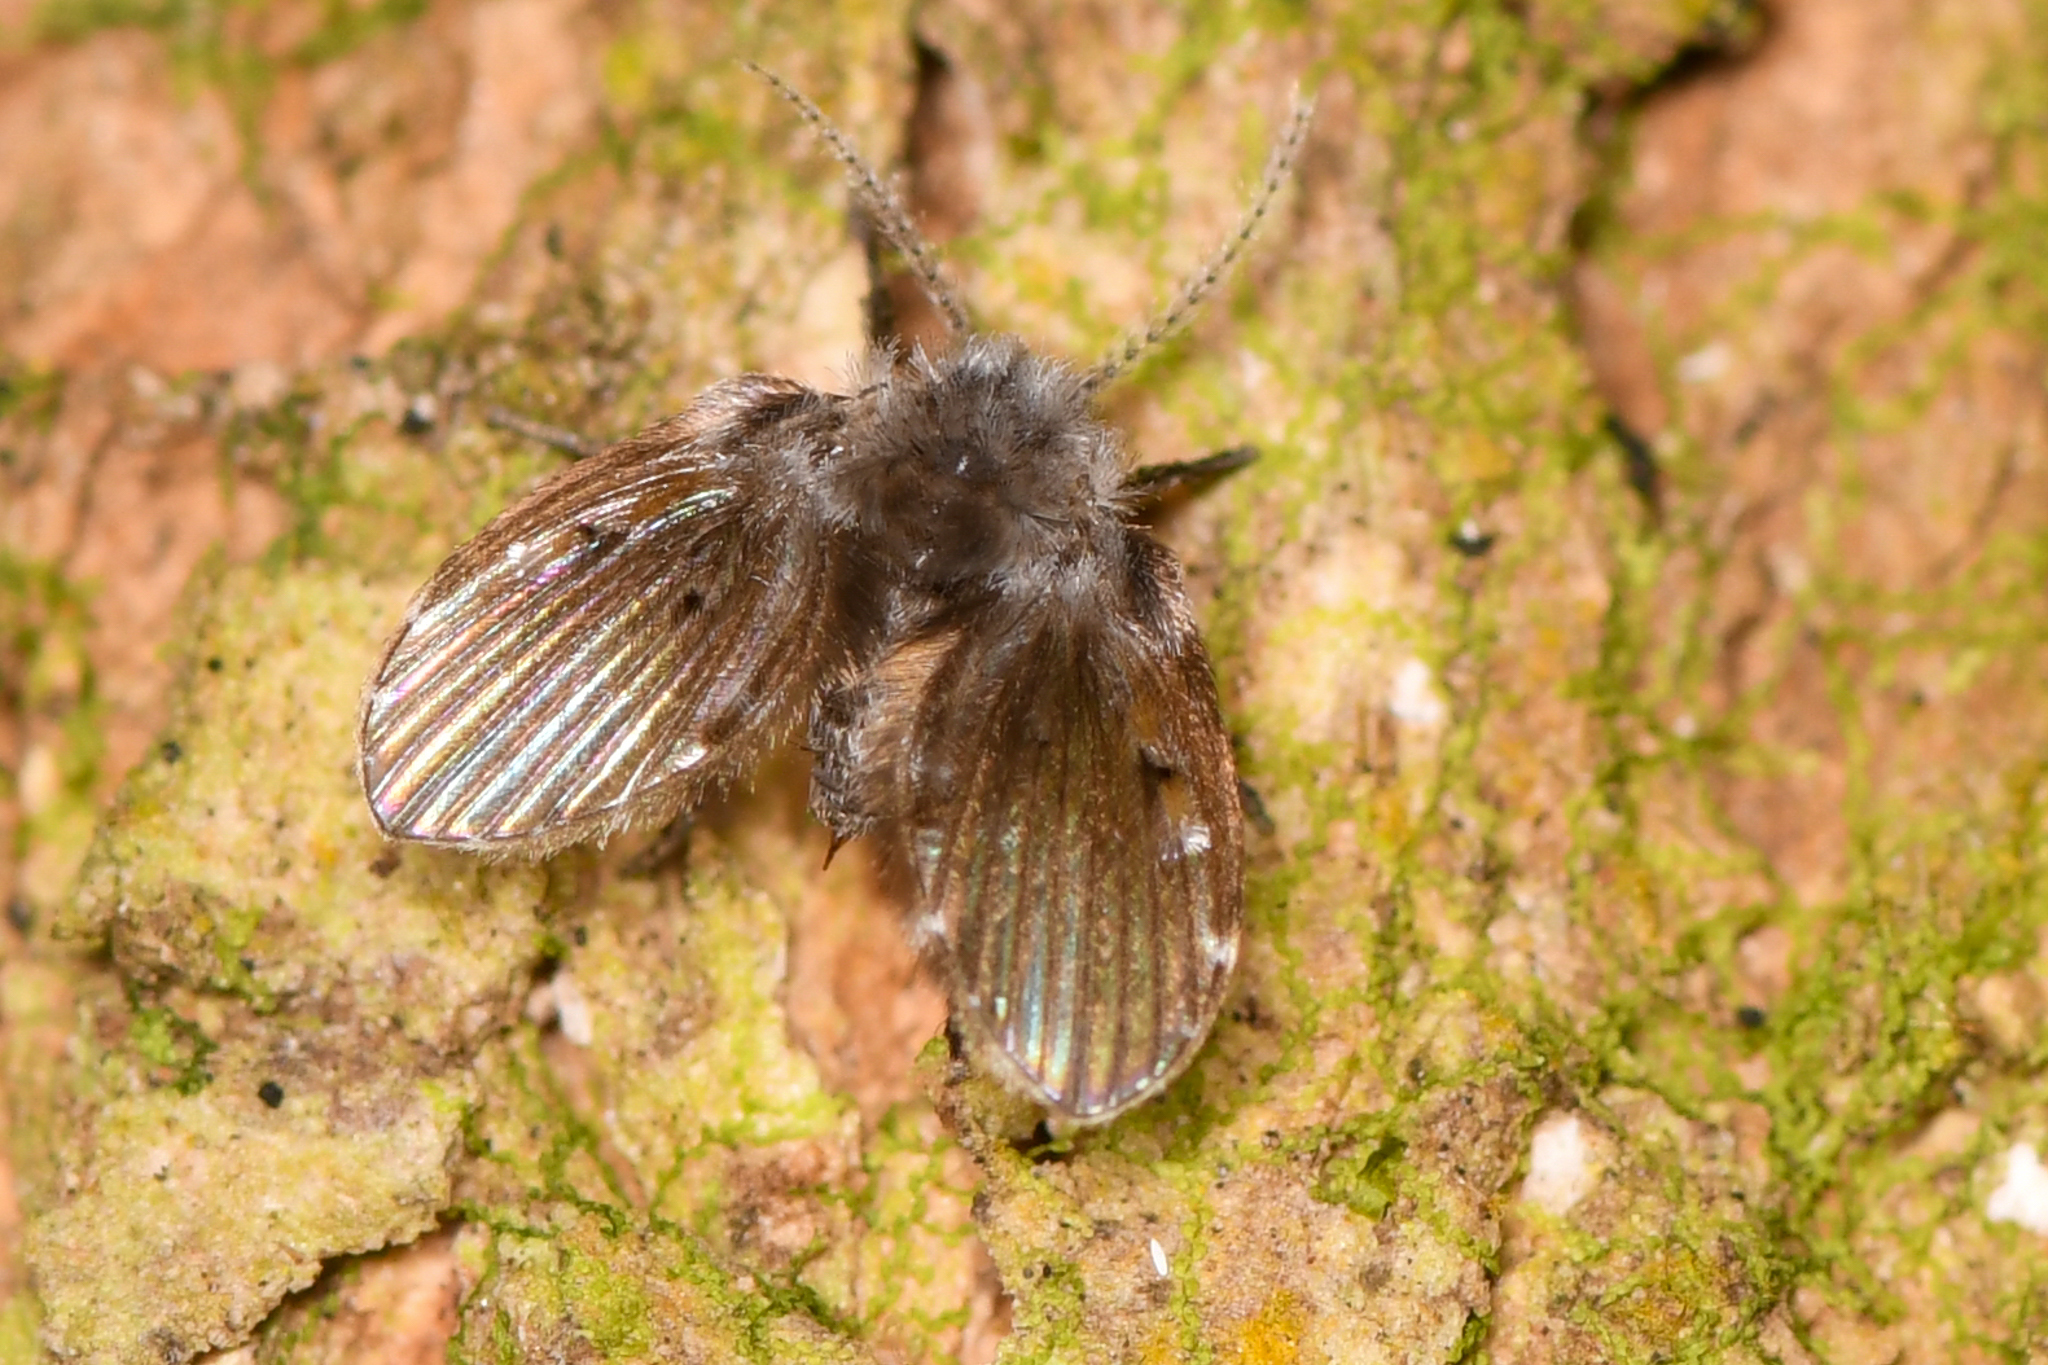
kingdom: Animalia
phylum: Arthropoda
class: Insecta
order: Diptera
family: Psychodidae
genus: Clogmia
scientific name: Clogmia albipunctatus
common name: White-spotted moth fly
